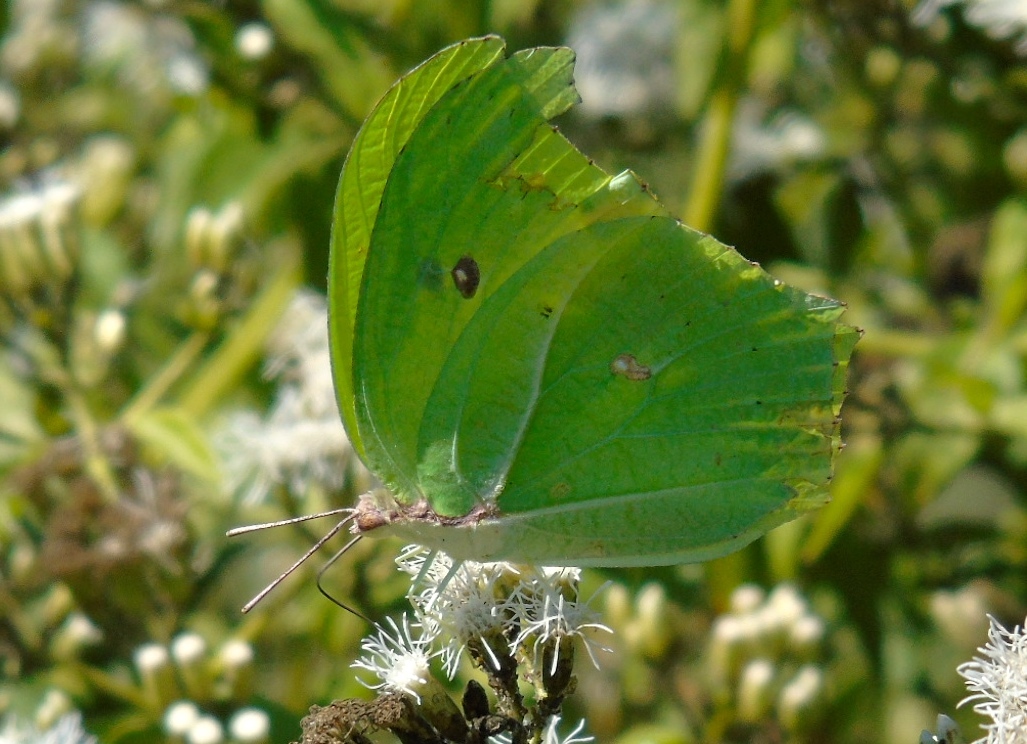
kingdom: Animalia
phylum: Arthropoda
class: Insecta
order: Lepidoptera
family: Pieridae
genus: Anteos
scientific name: Anteos maerula
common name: Angled sulphur
